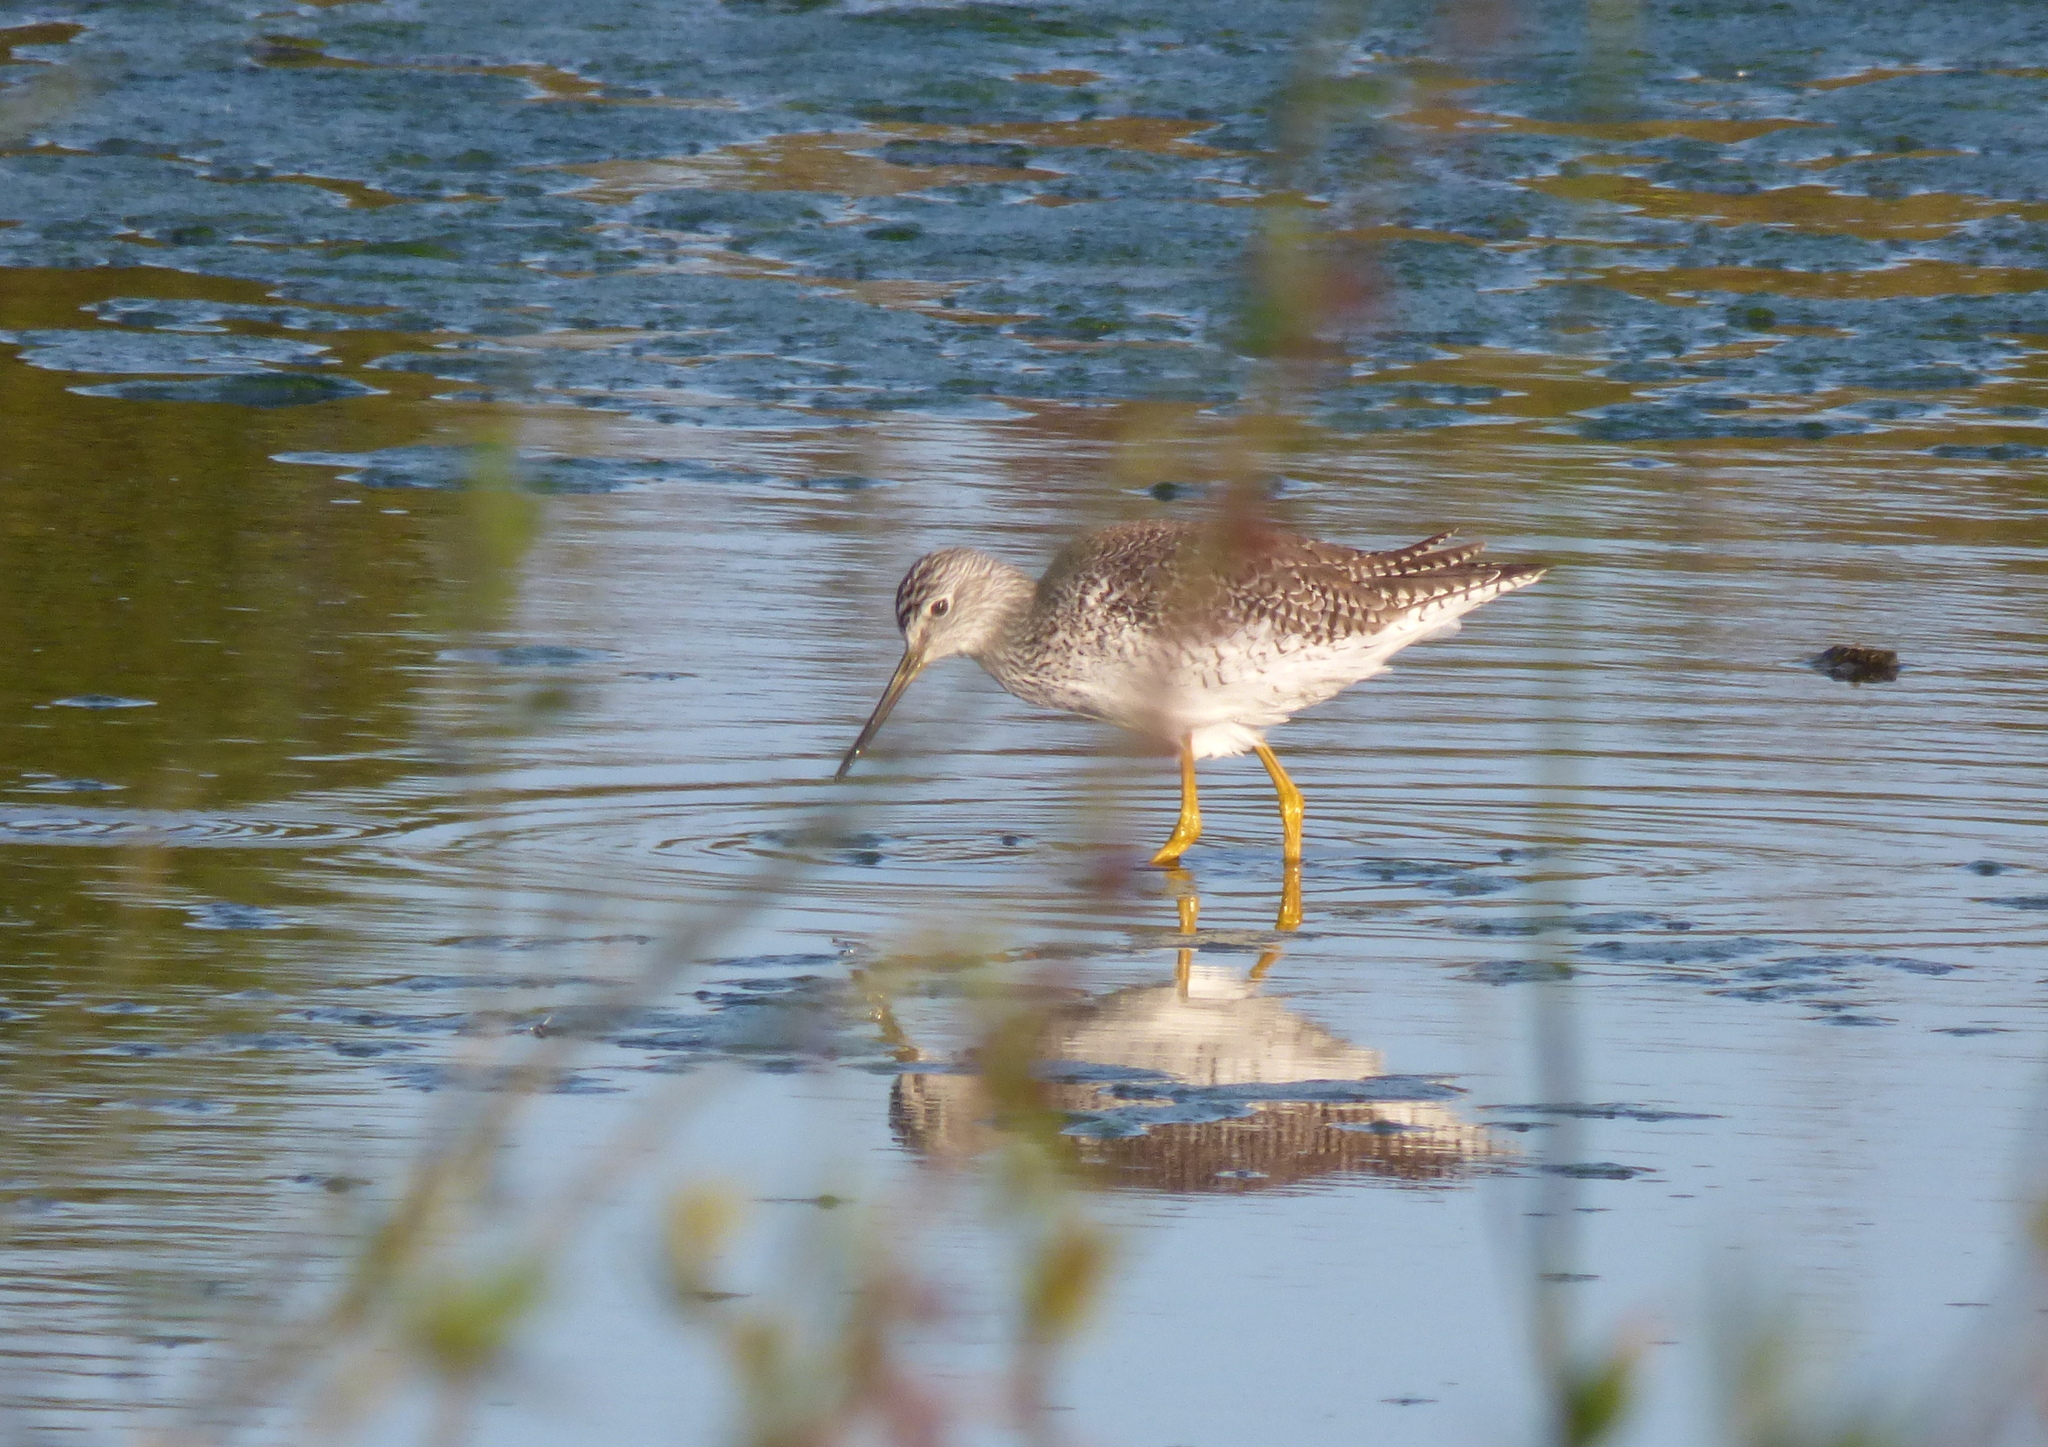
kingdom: Animalia
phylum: Chordata
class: Aves
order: Charadriiformes
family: Scolopacidae
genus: Tringa
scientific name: Tringa melanoleuca
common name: Greater yellowlegs
